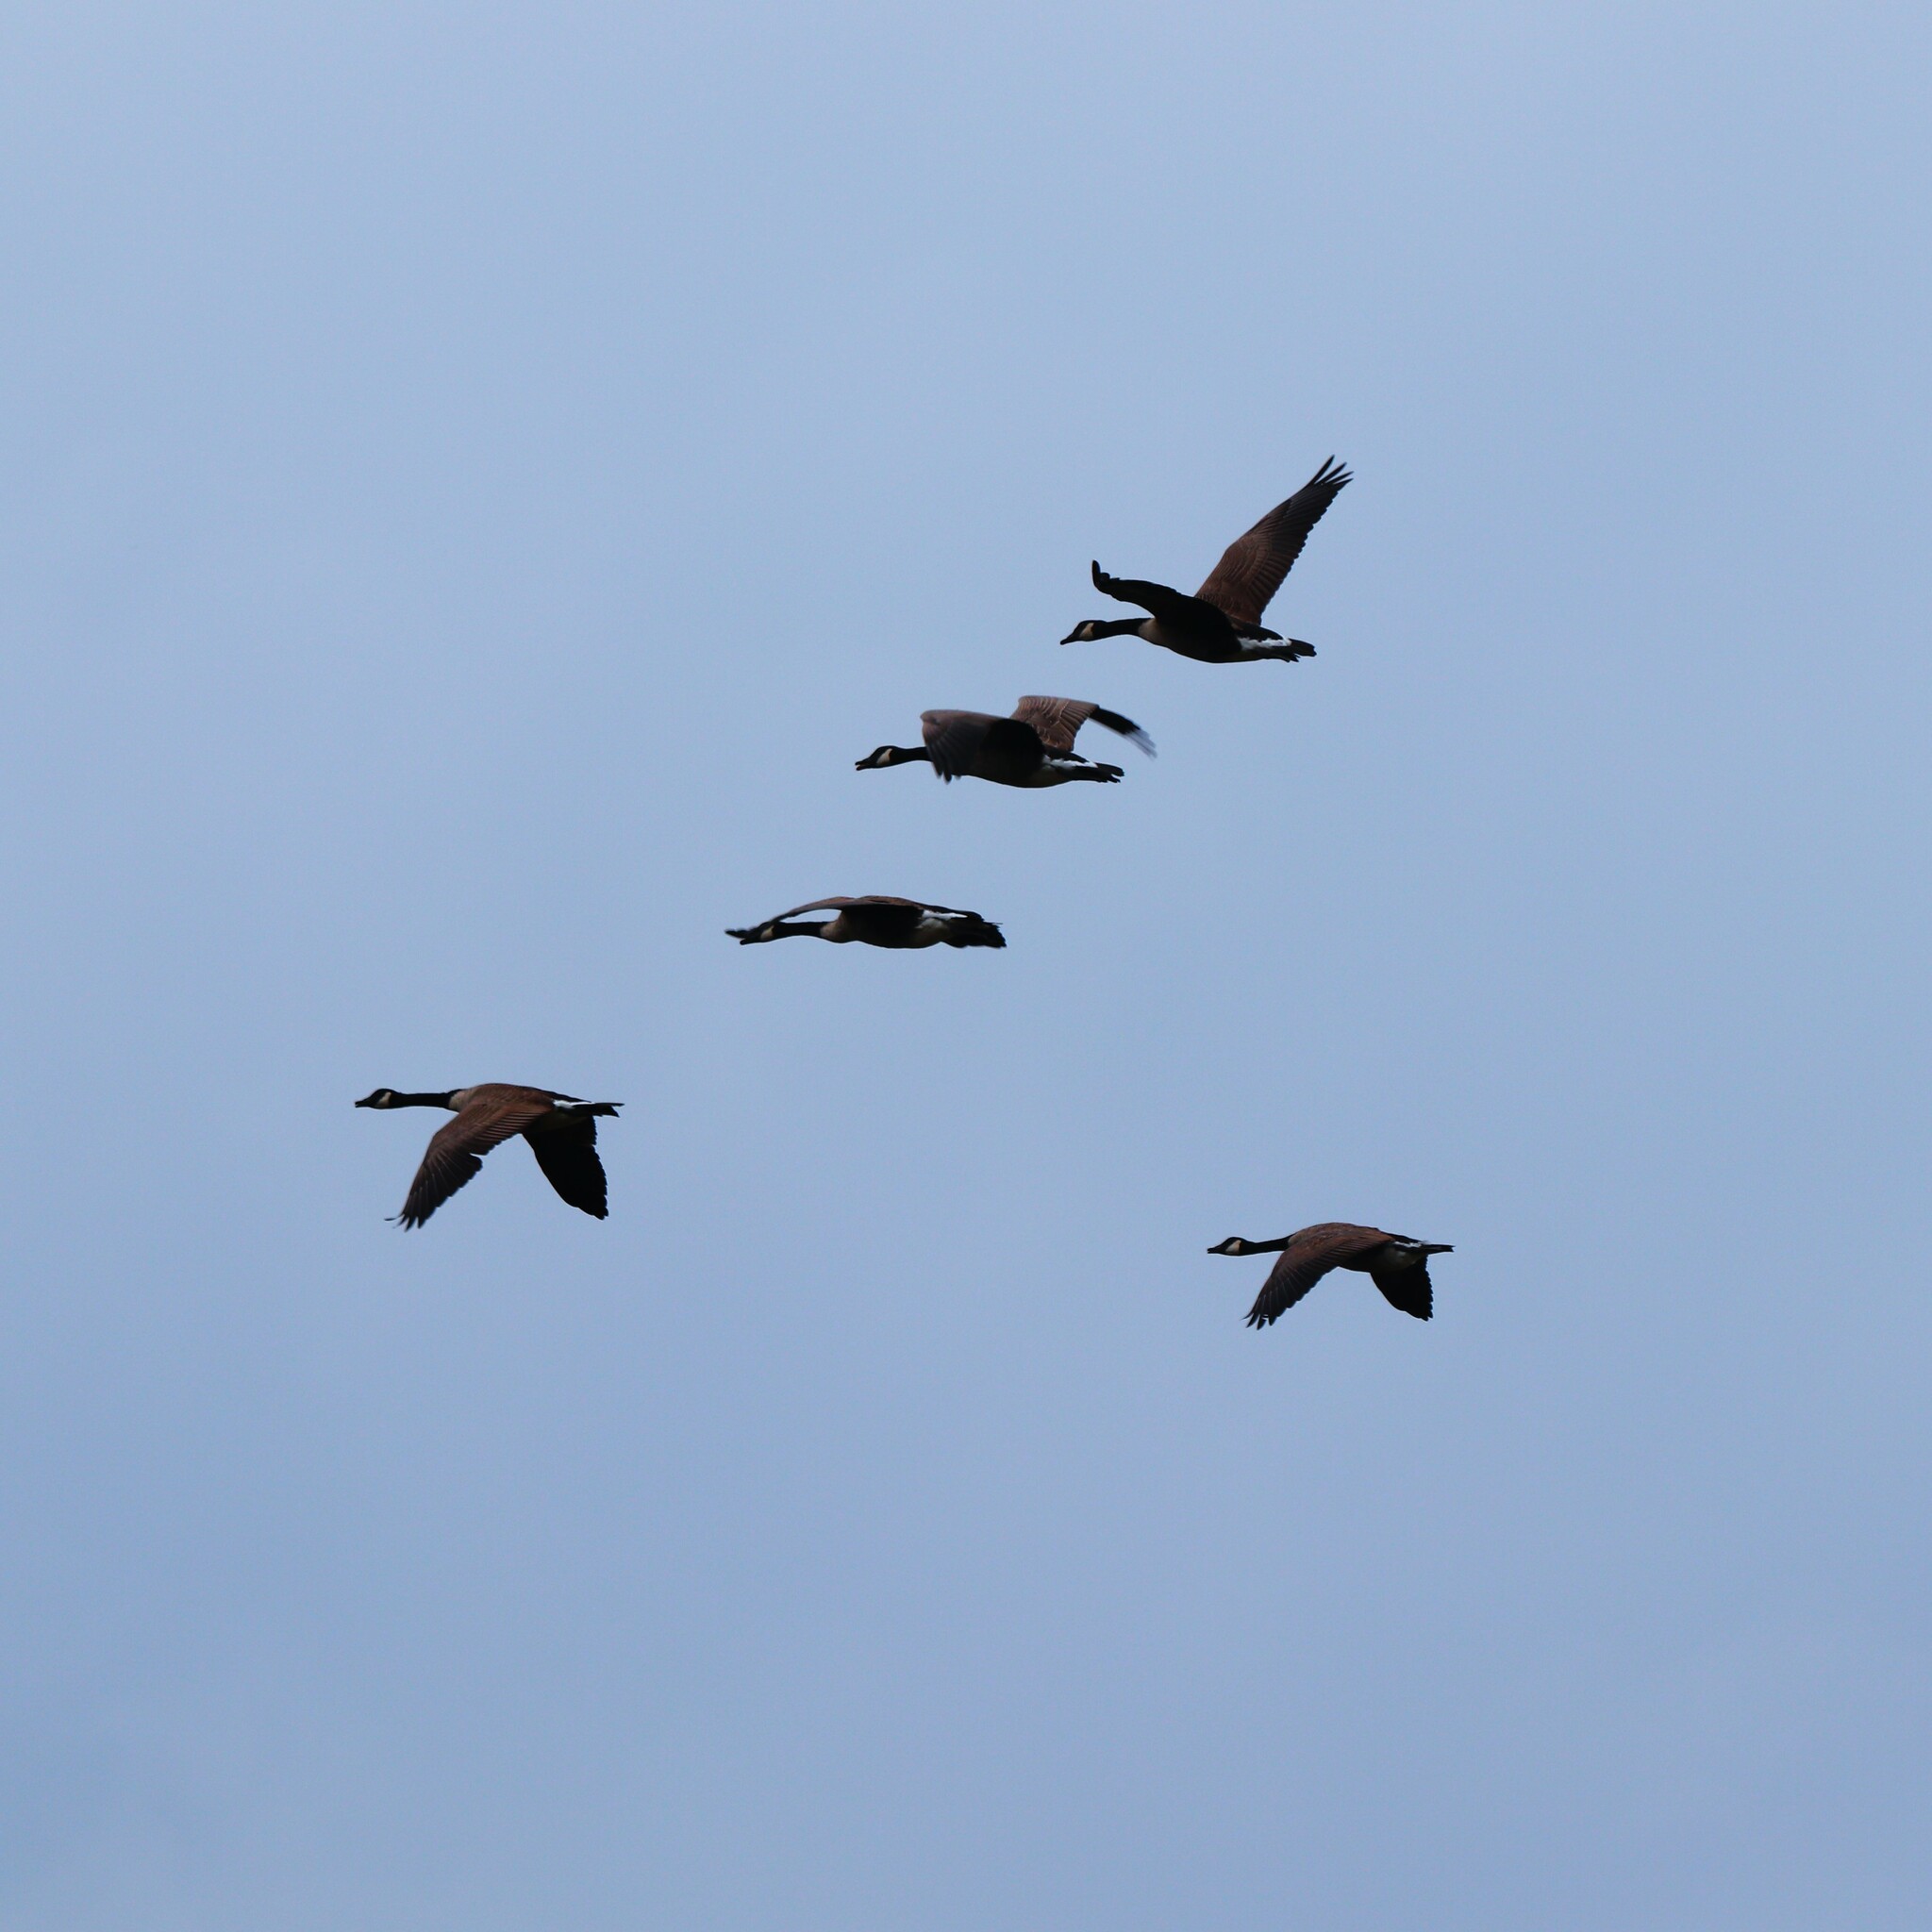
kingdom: Animalia
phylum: Chordata
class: Aves
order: Anseriformes
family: Anatidae
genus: Branta
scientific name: Branta canadensis
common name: Canada goose
